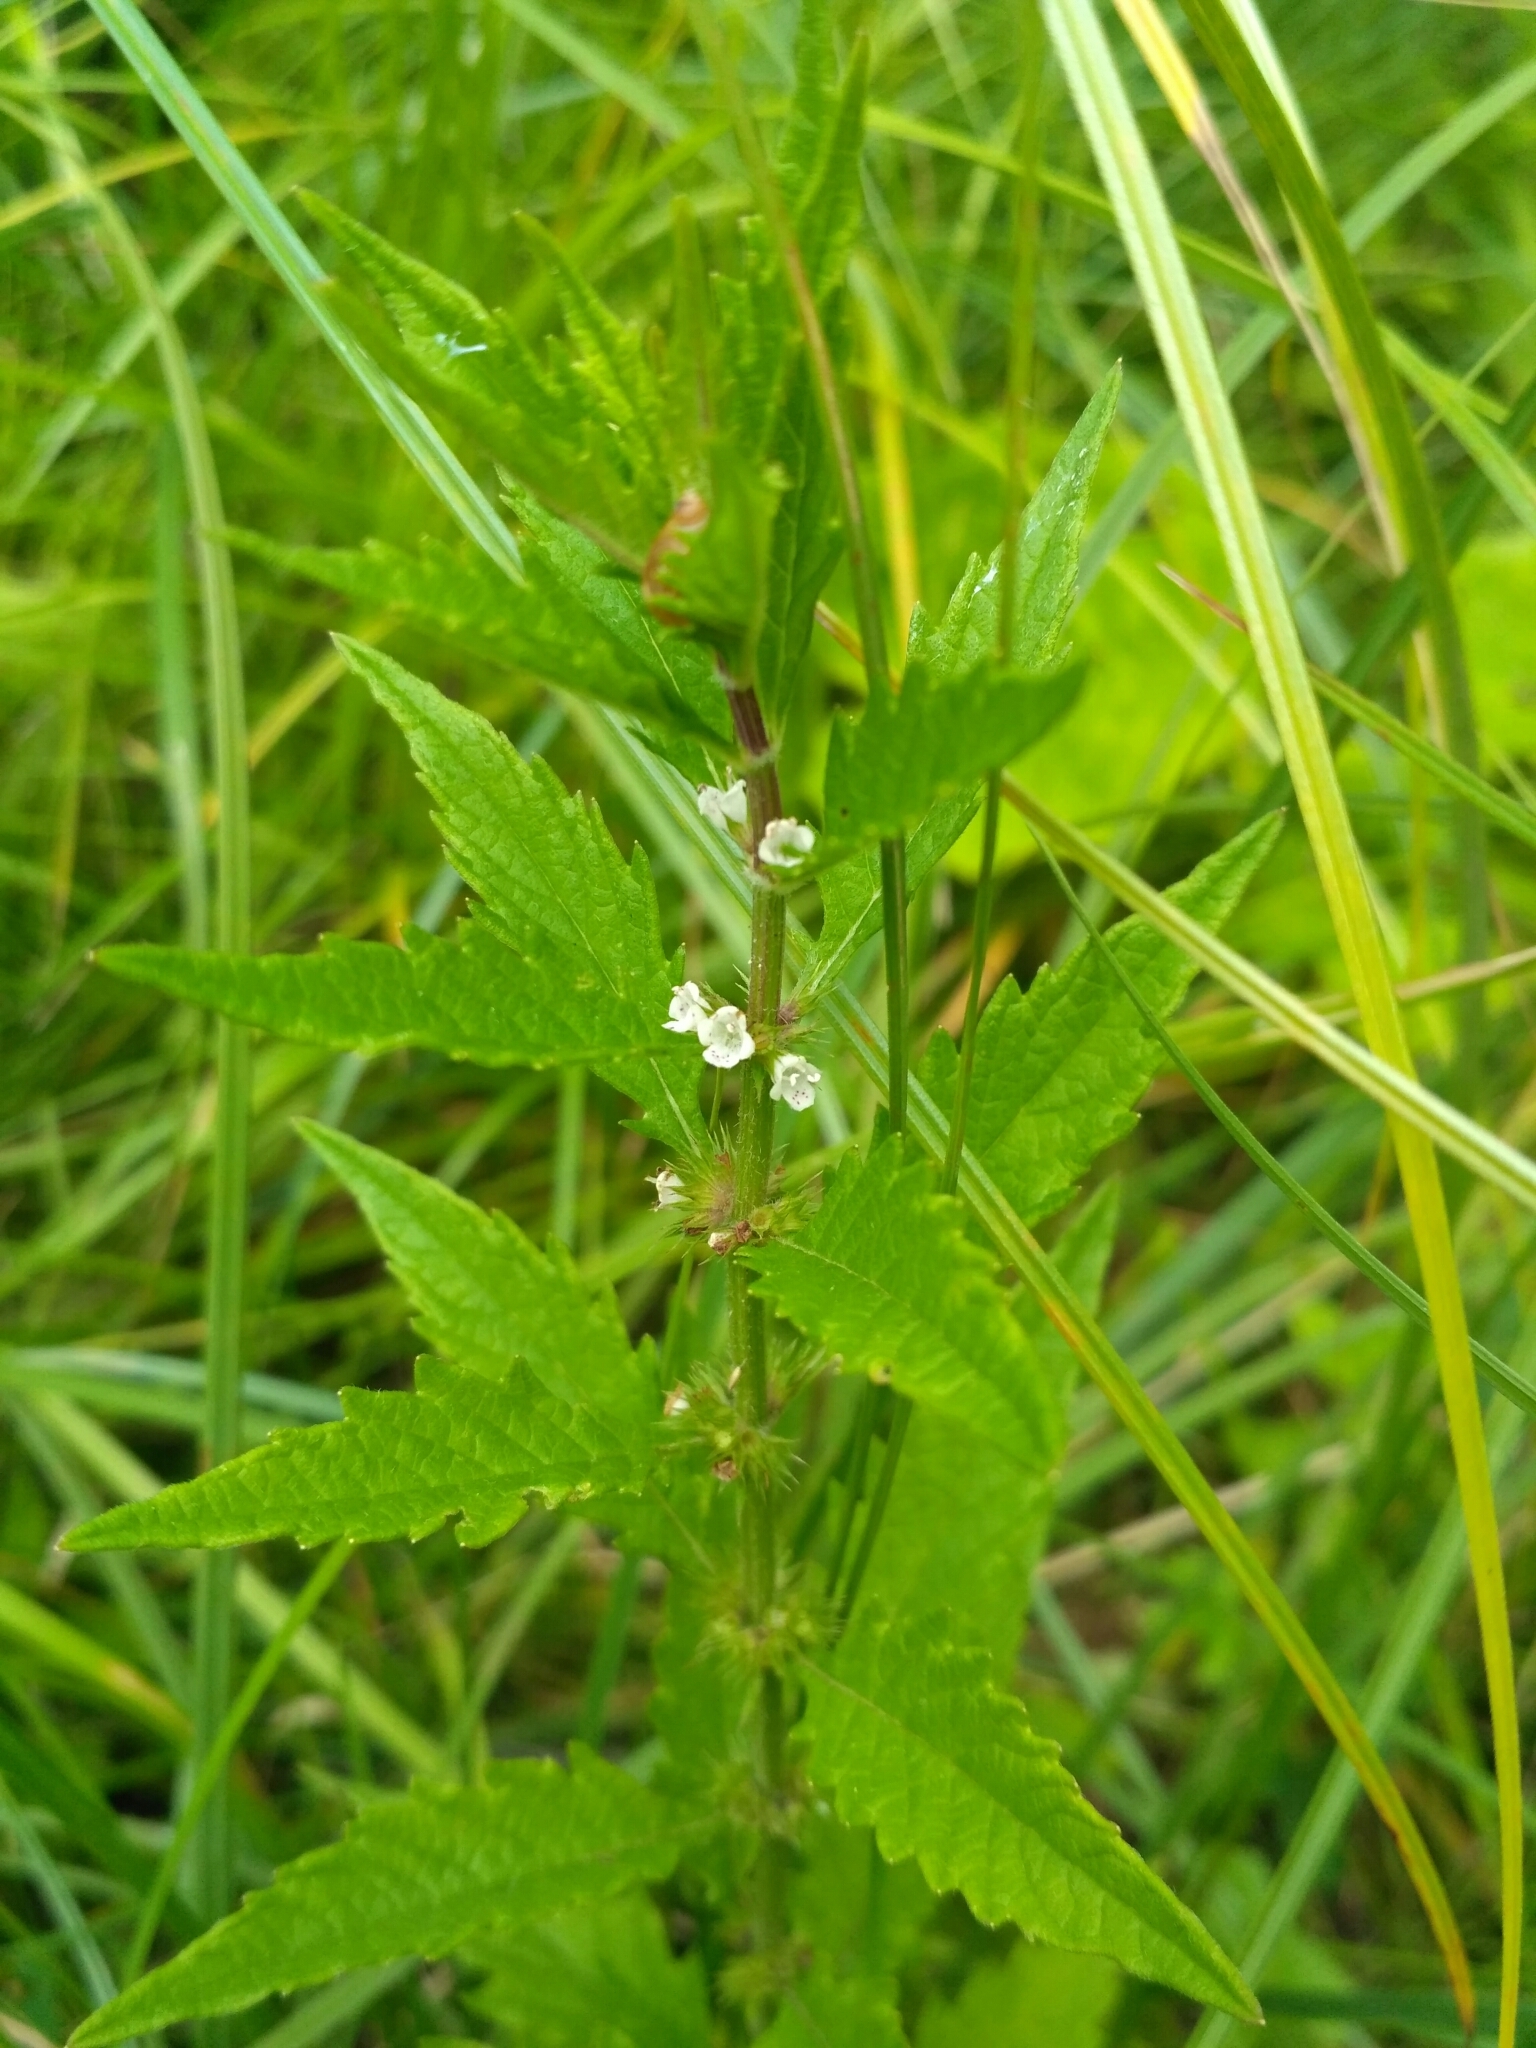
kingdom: Plantae
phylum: Tracheophyta
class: Magnoliopsida
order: Lamiales
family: Lamiaceae
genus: Lycopus
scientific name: Lycopus europaeus
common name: European bugleweed
